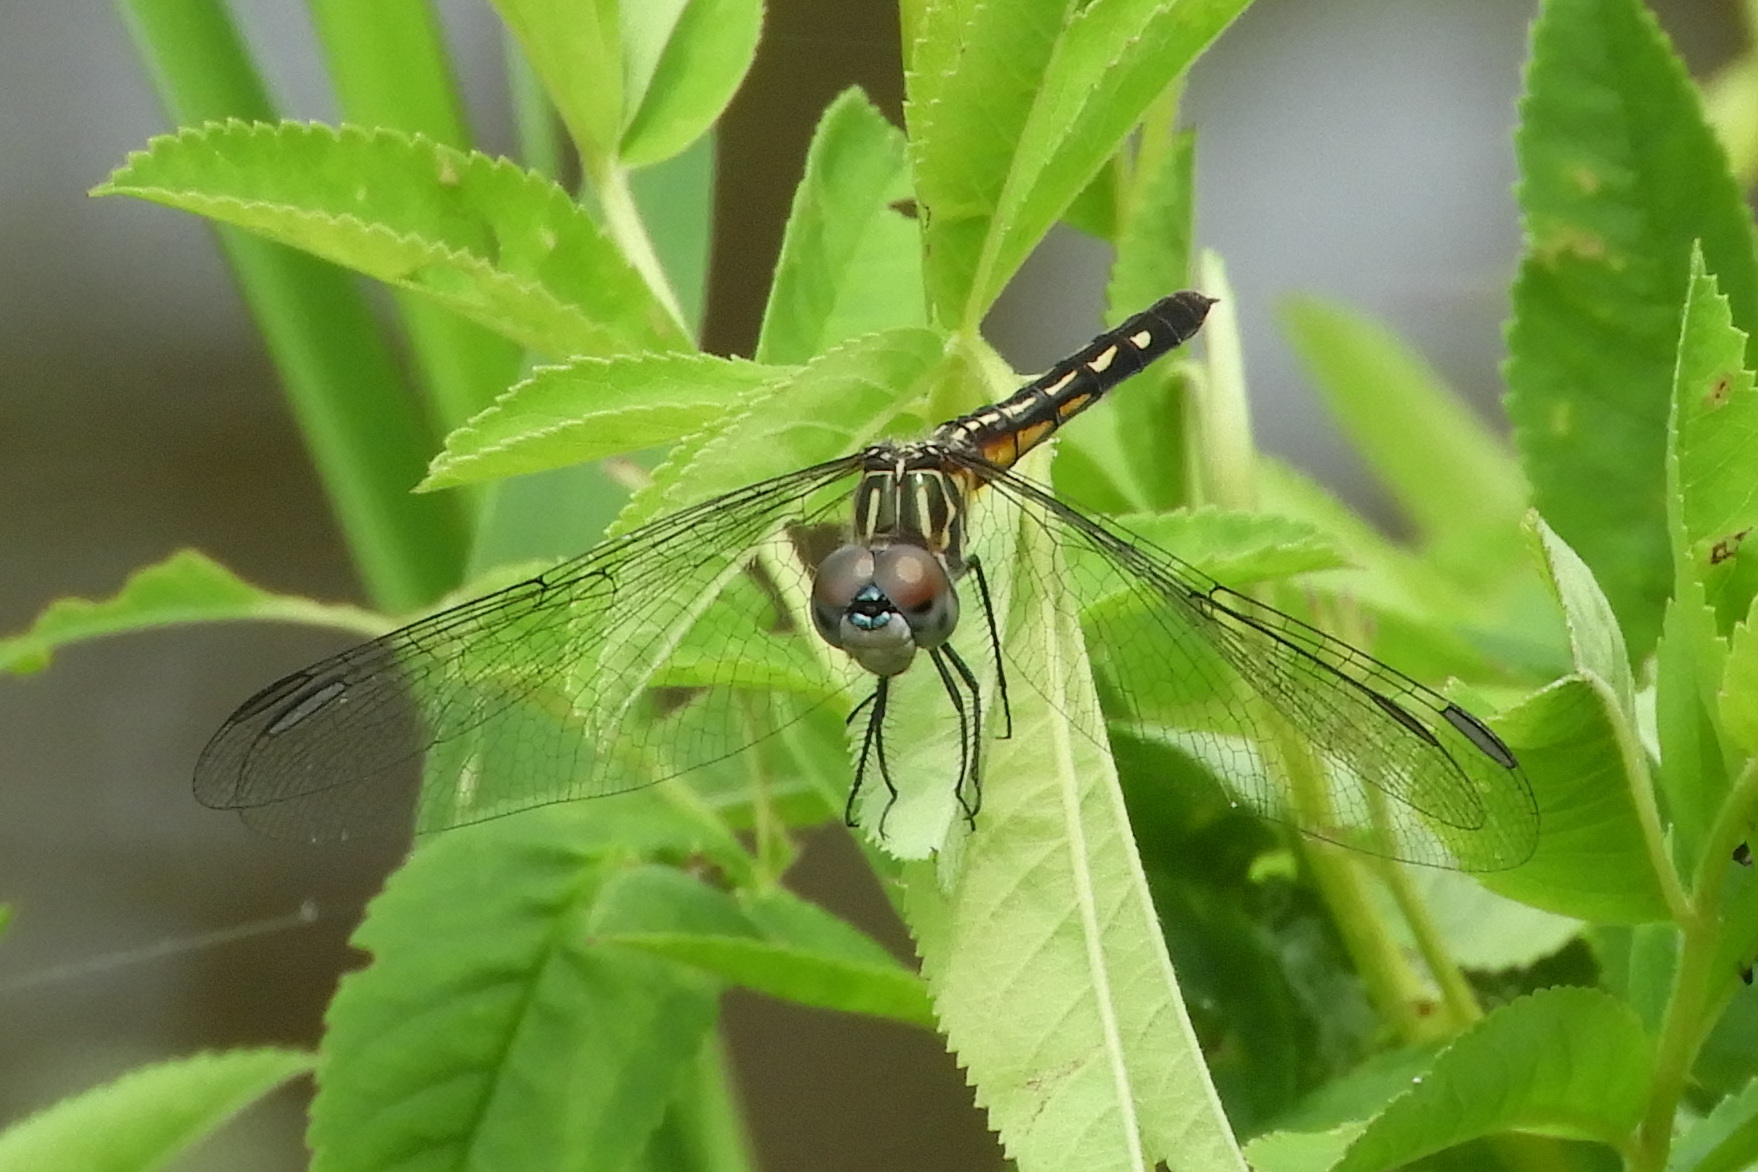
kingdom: Animalia
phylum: Arthropoda
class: Insecta
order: Odonata
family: Libellulidae
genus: Pachydiplax
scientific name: Pachydiplax longipennis
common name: Blue dasher
